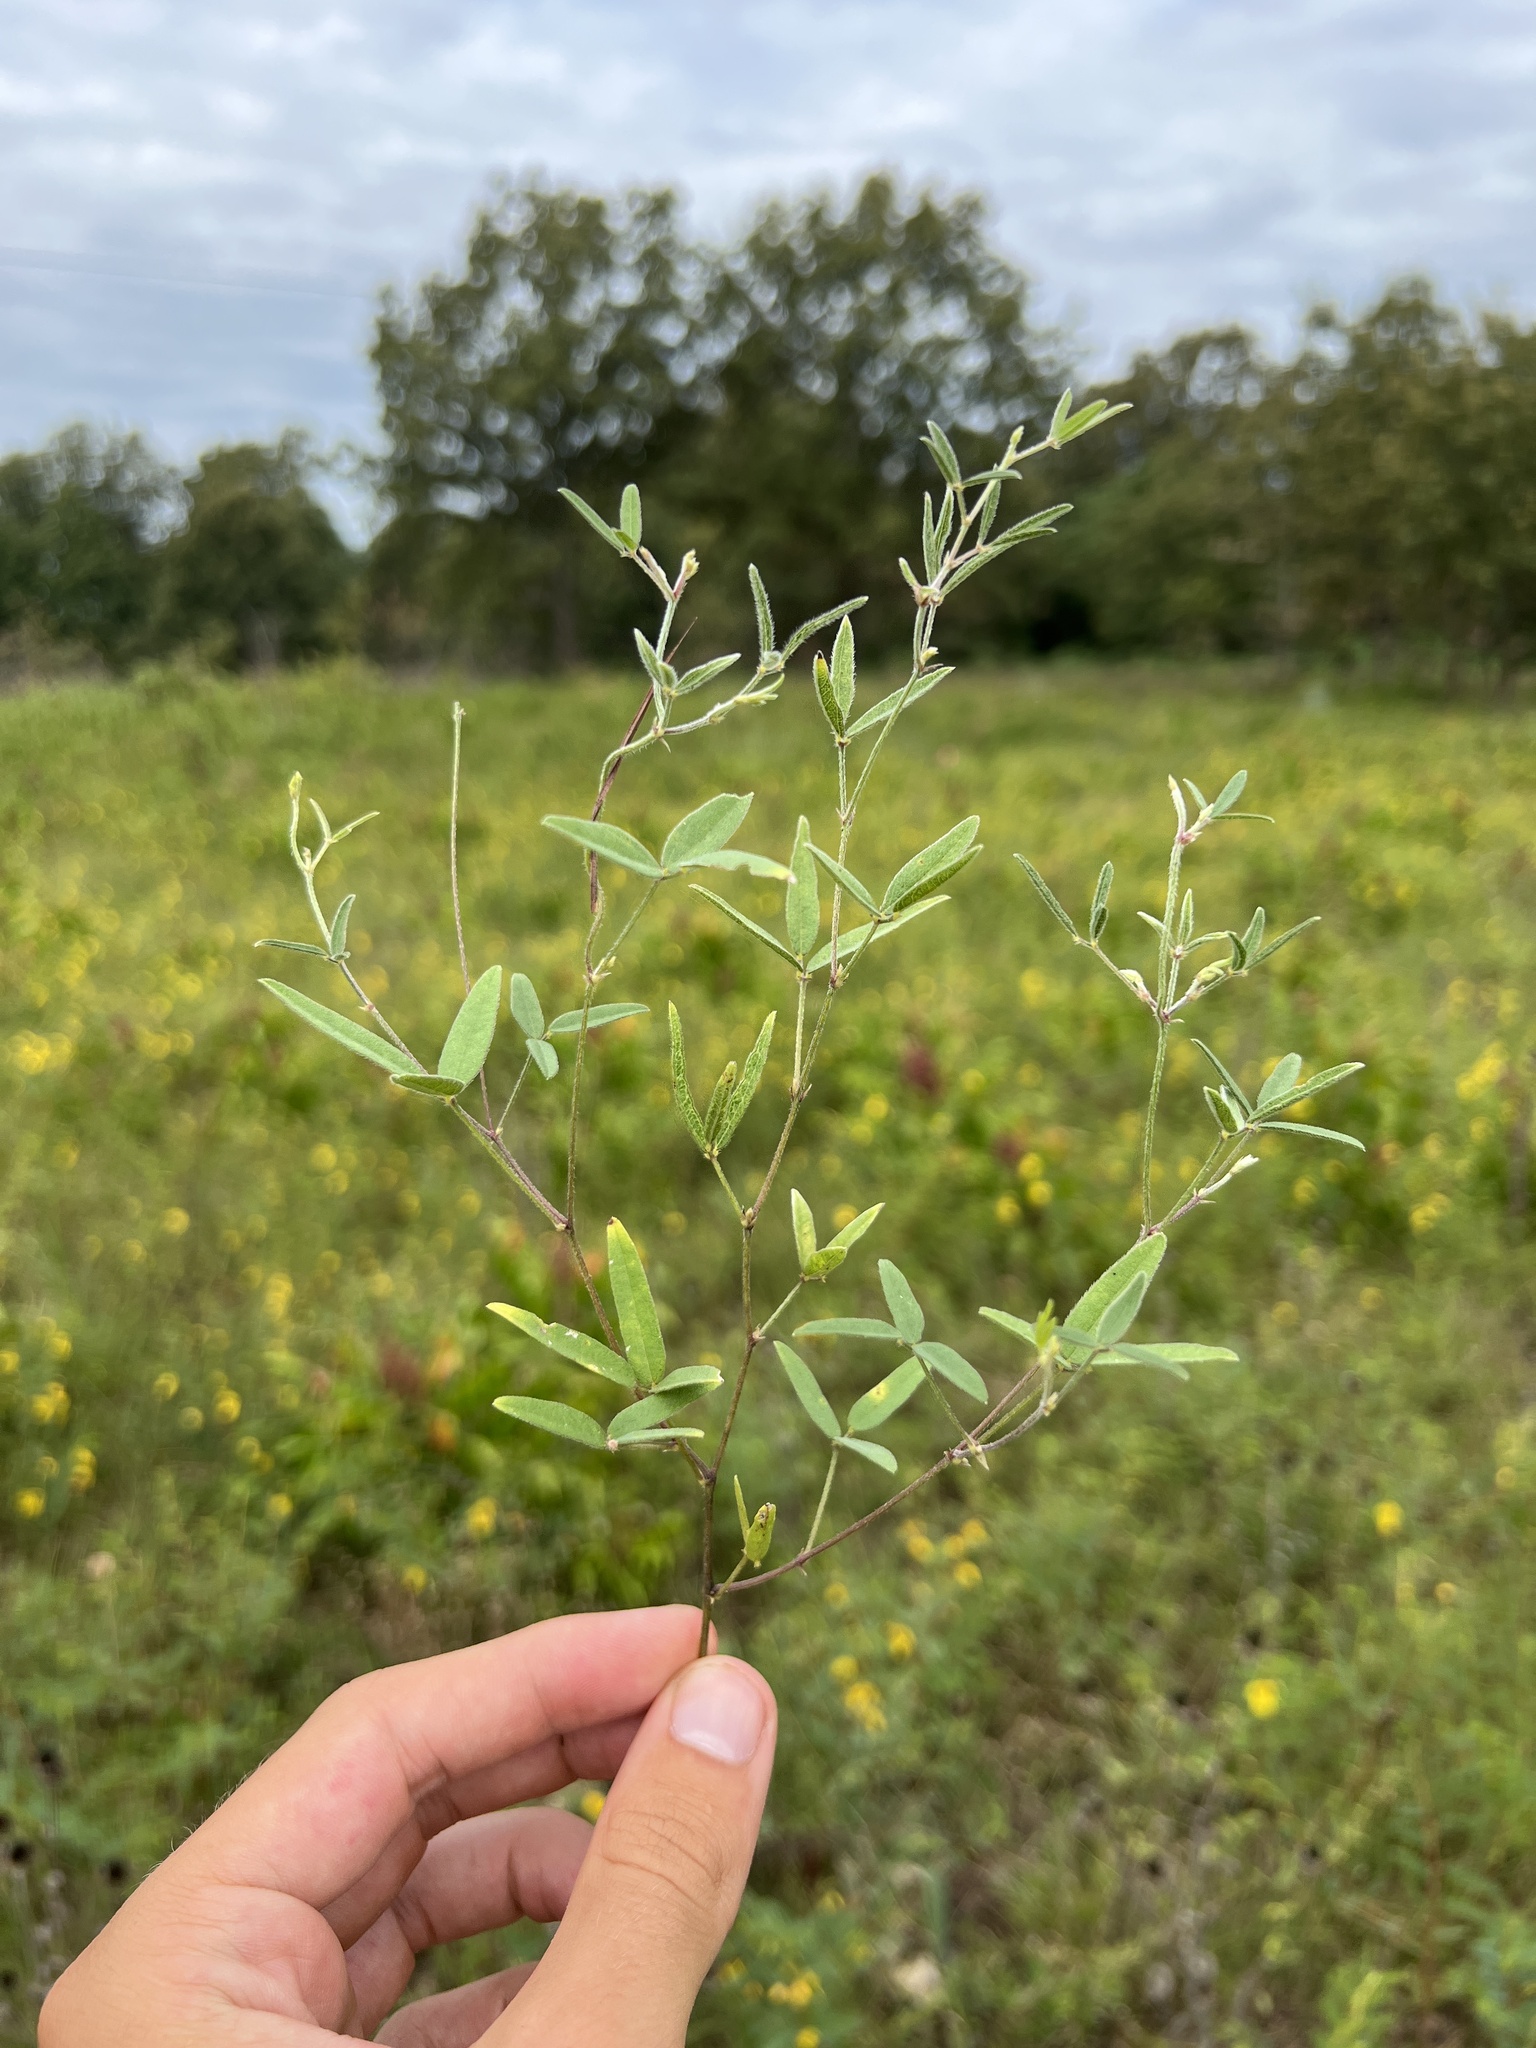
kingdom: Plantae
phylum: Tracheophyta
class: Magnoliopsida
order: Fabales
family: Fabaceae
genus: Strophostyles
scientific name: Strophostyles leiosperma
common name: Smooth-seed wild bean
